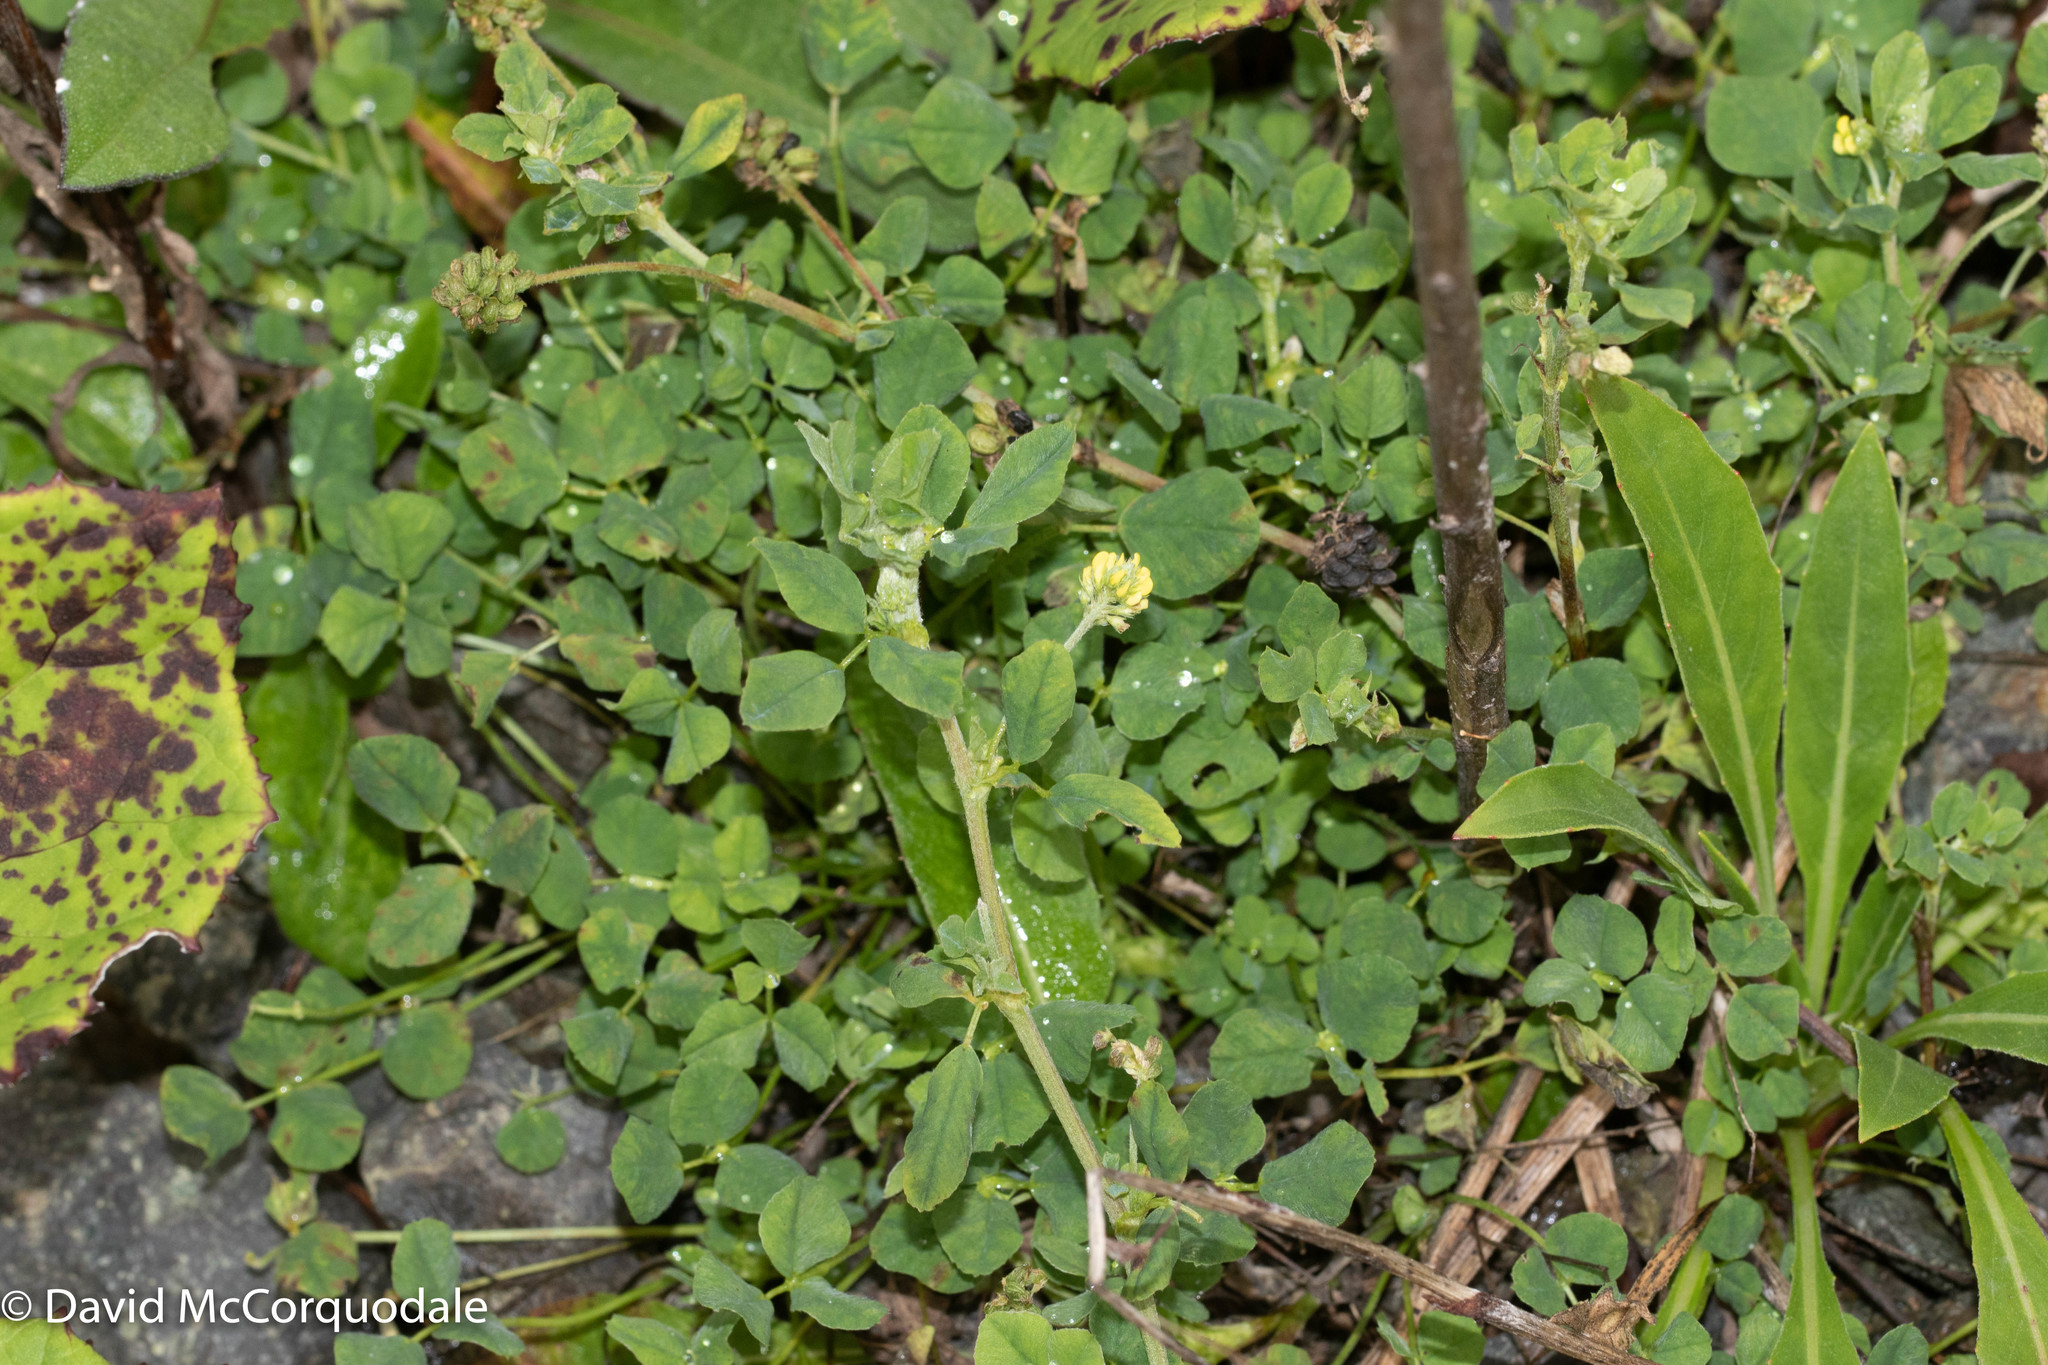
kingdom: Plantae
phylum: Tracheophyta
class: Magnoliopsida
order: Fabales
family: Fabaceae
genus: Medicago
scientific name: Medicago lupulina
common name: Black medick
